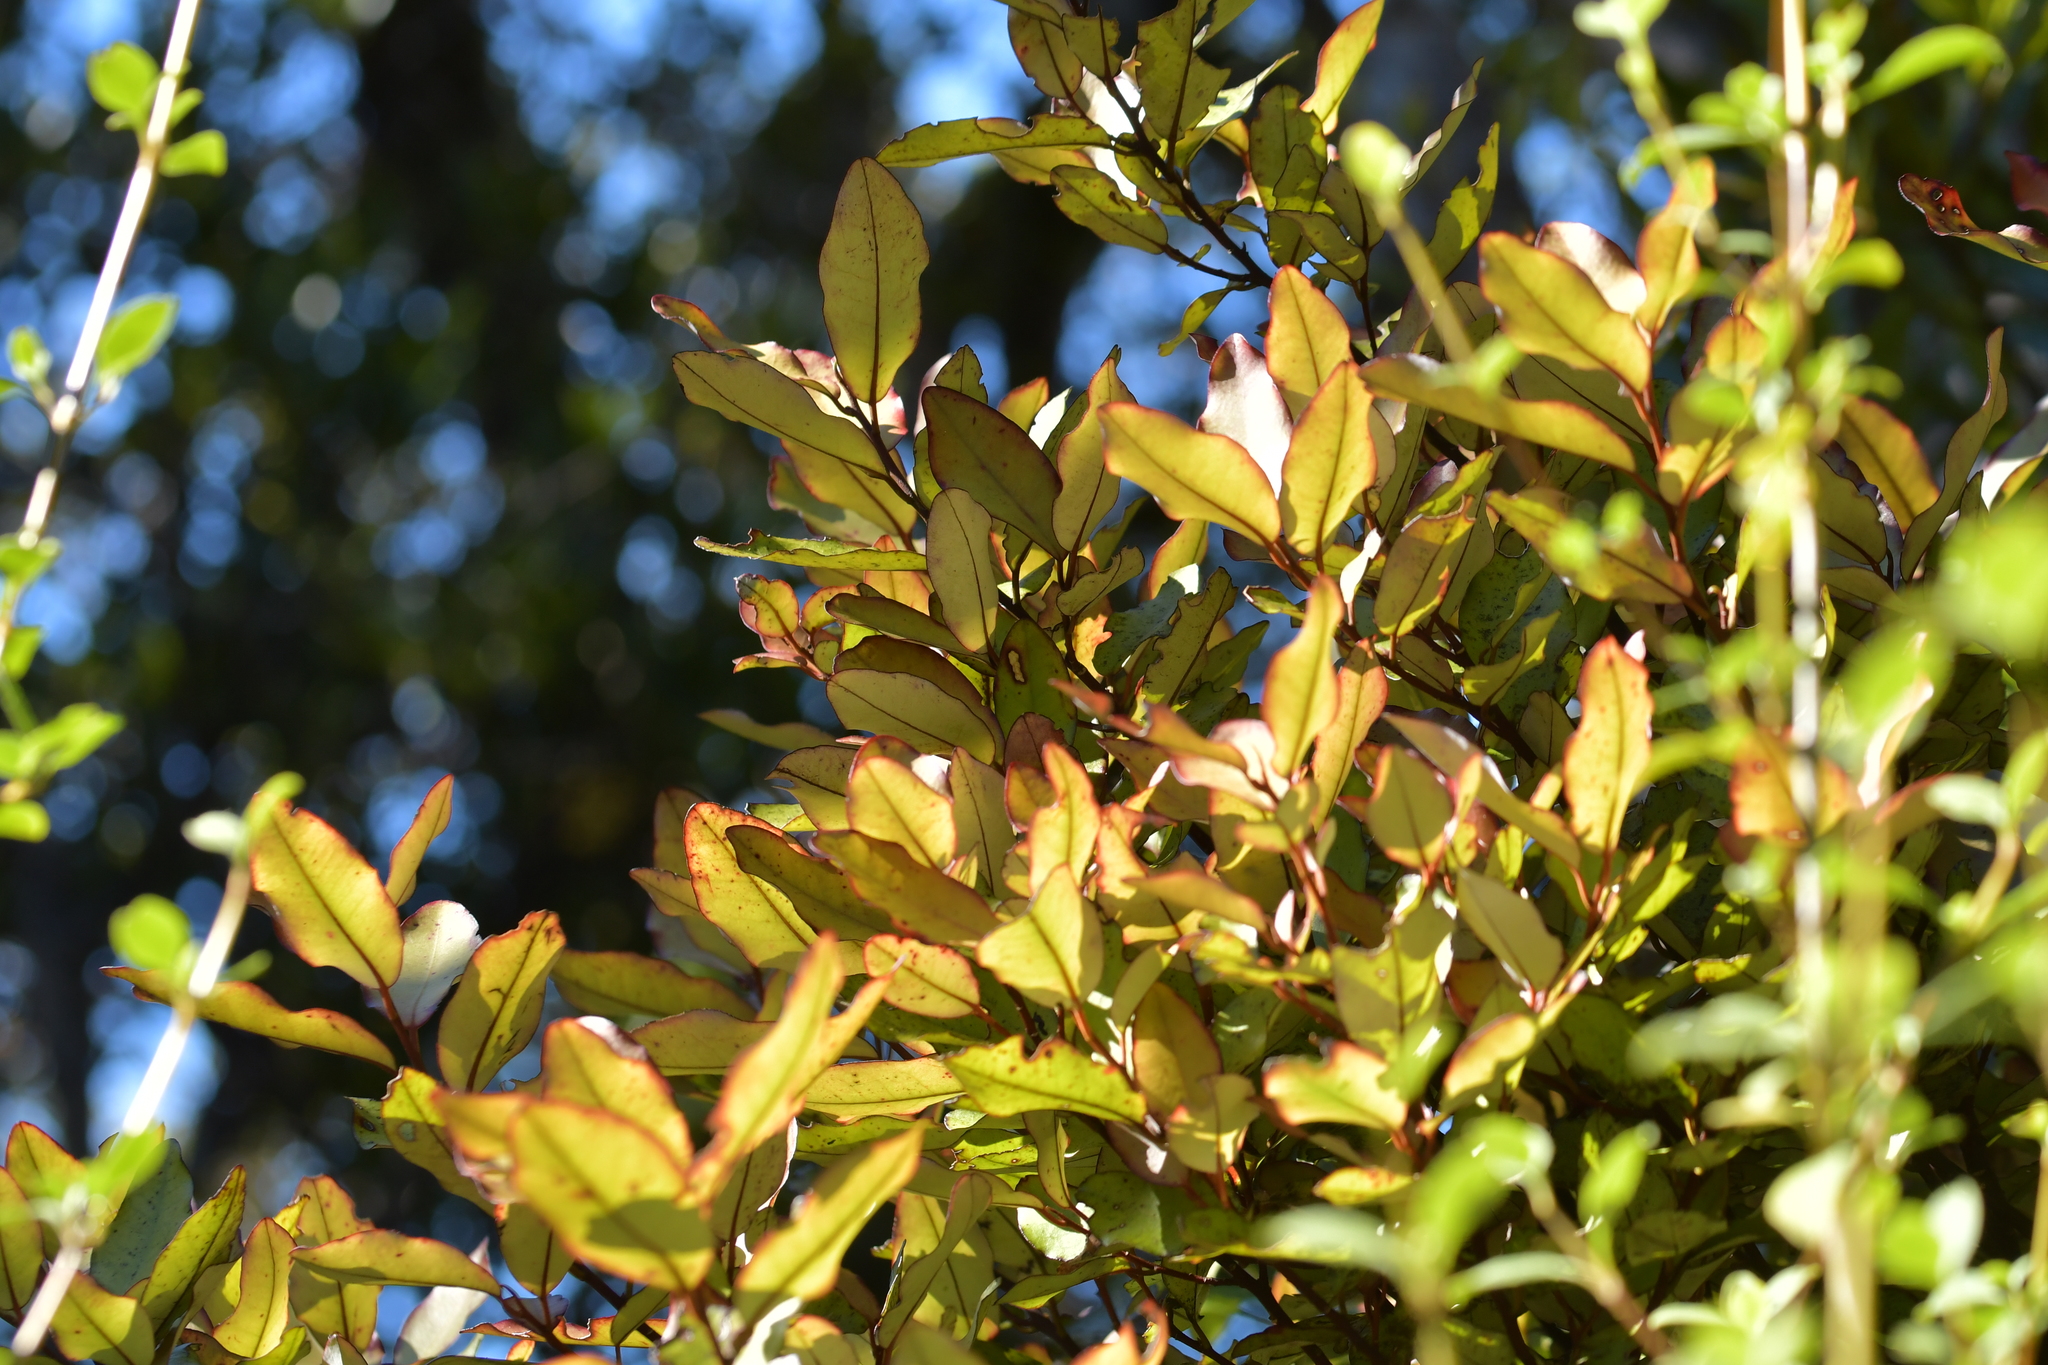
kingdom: Plantae
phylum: Tracheophyta
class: Magnoliopsida
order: Canellales
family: Winteraceae
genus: Pseudowintera
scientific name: Pseudowintera colorata
